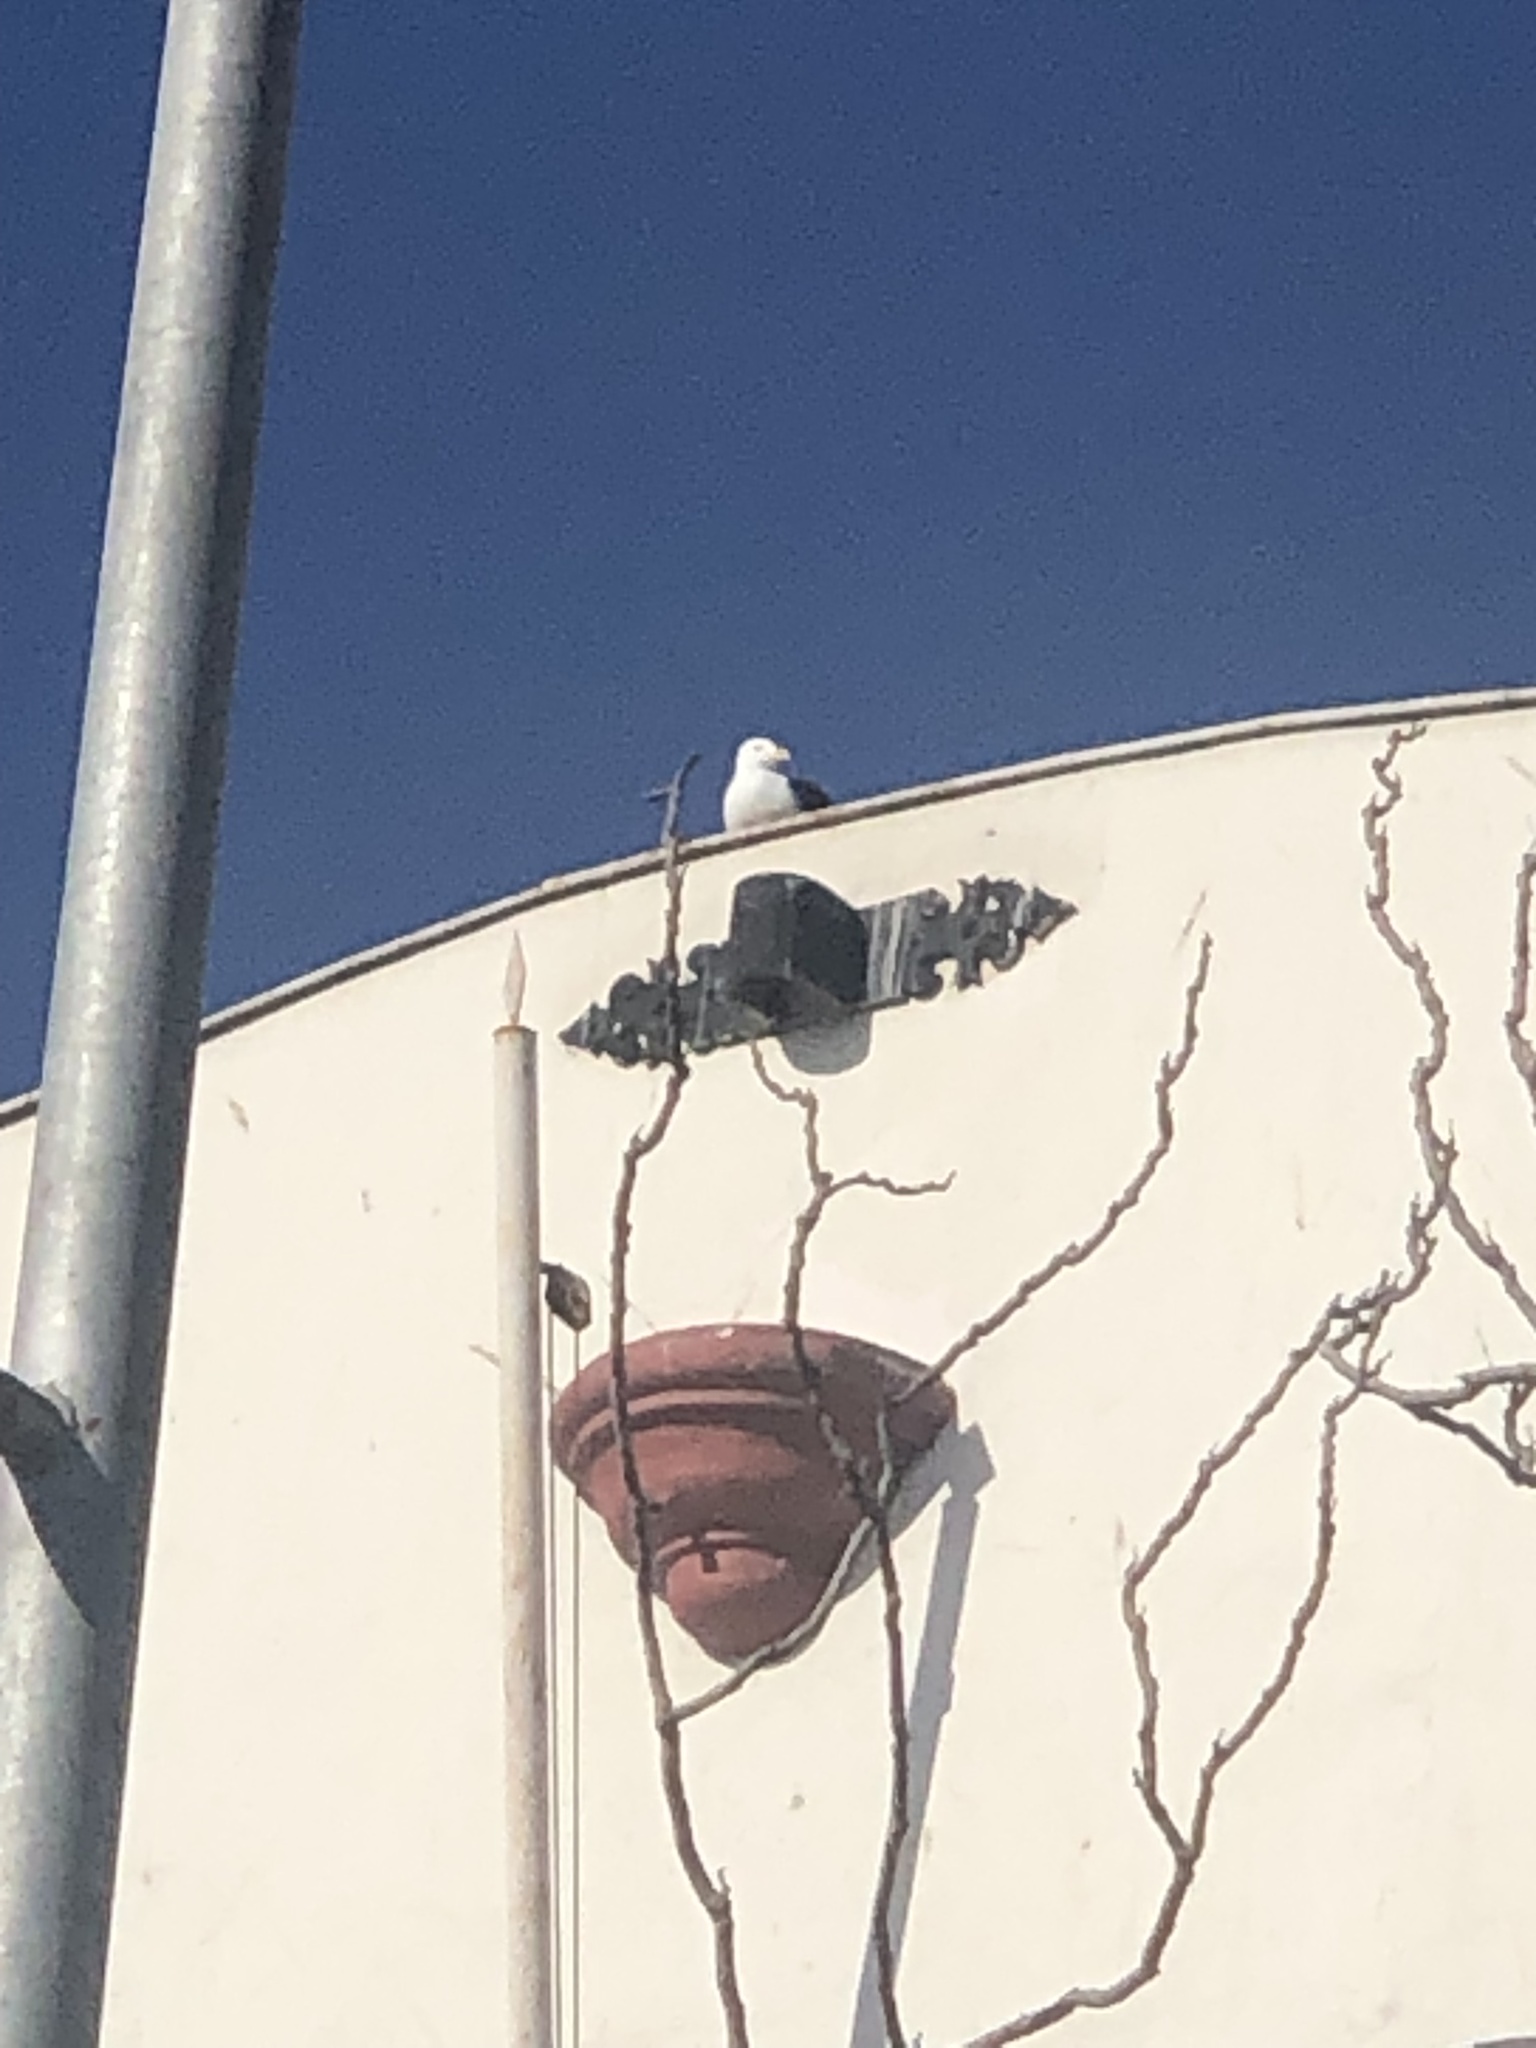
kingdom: Animalia
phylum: Chordata
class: Aves
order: Charadriiformes
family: Laridae
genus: Larus
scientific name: Larus dominicanus
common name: Kelp gull
